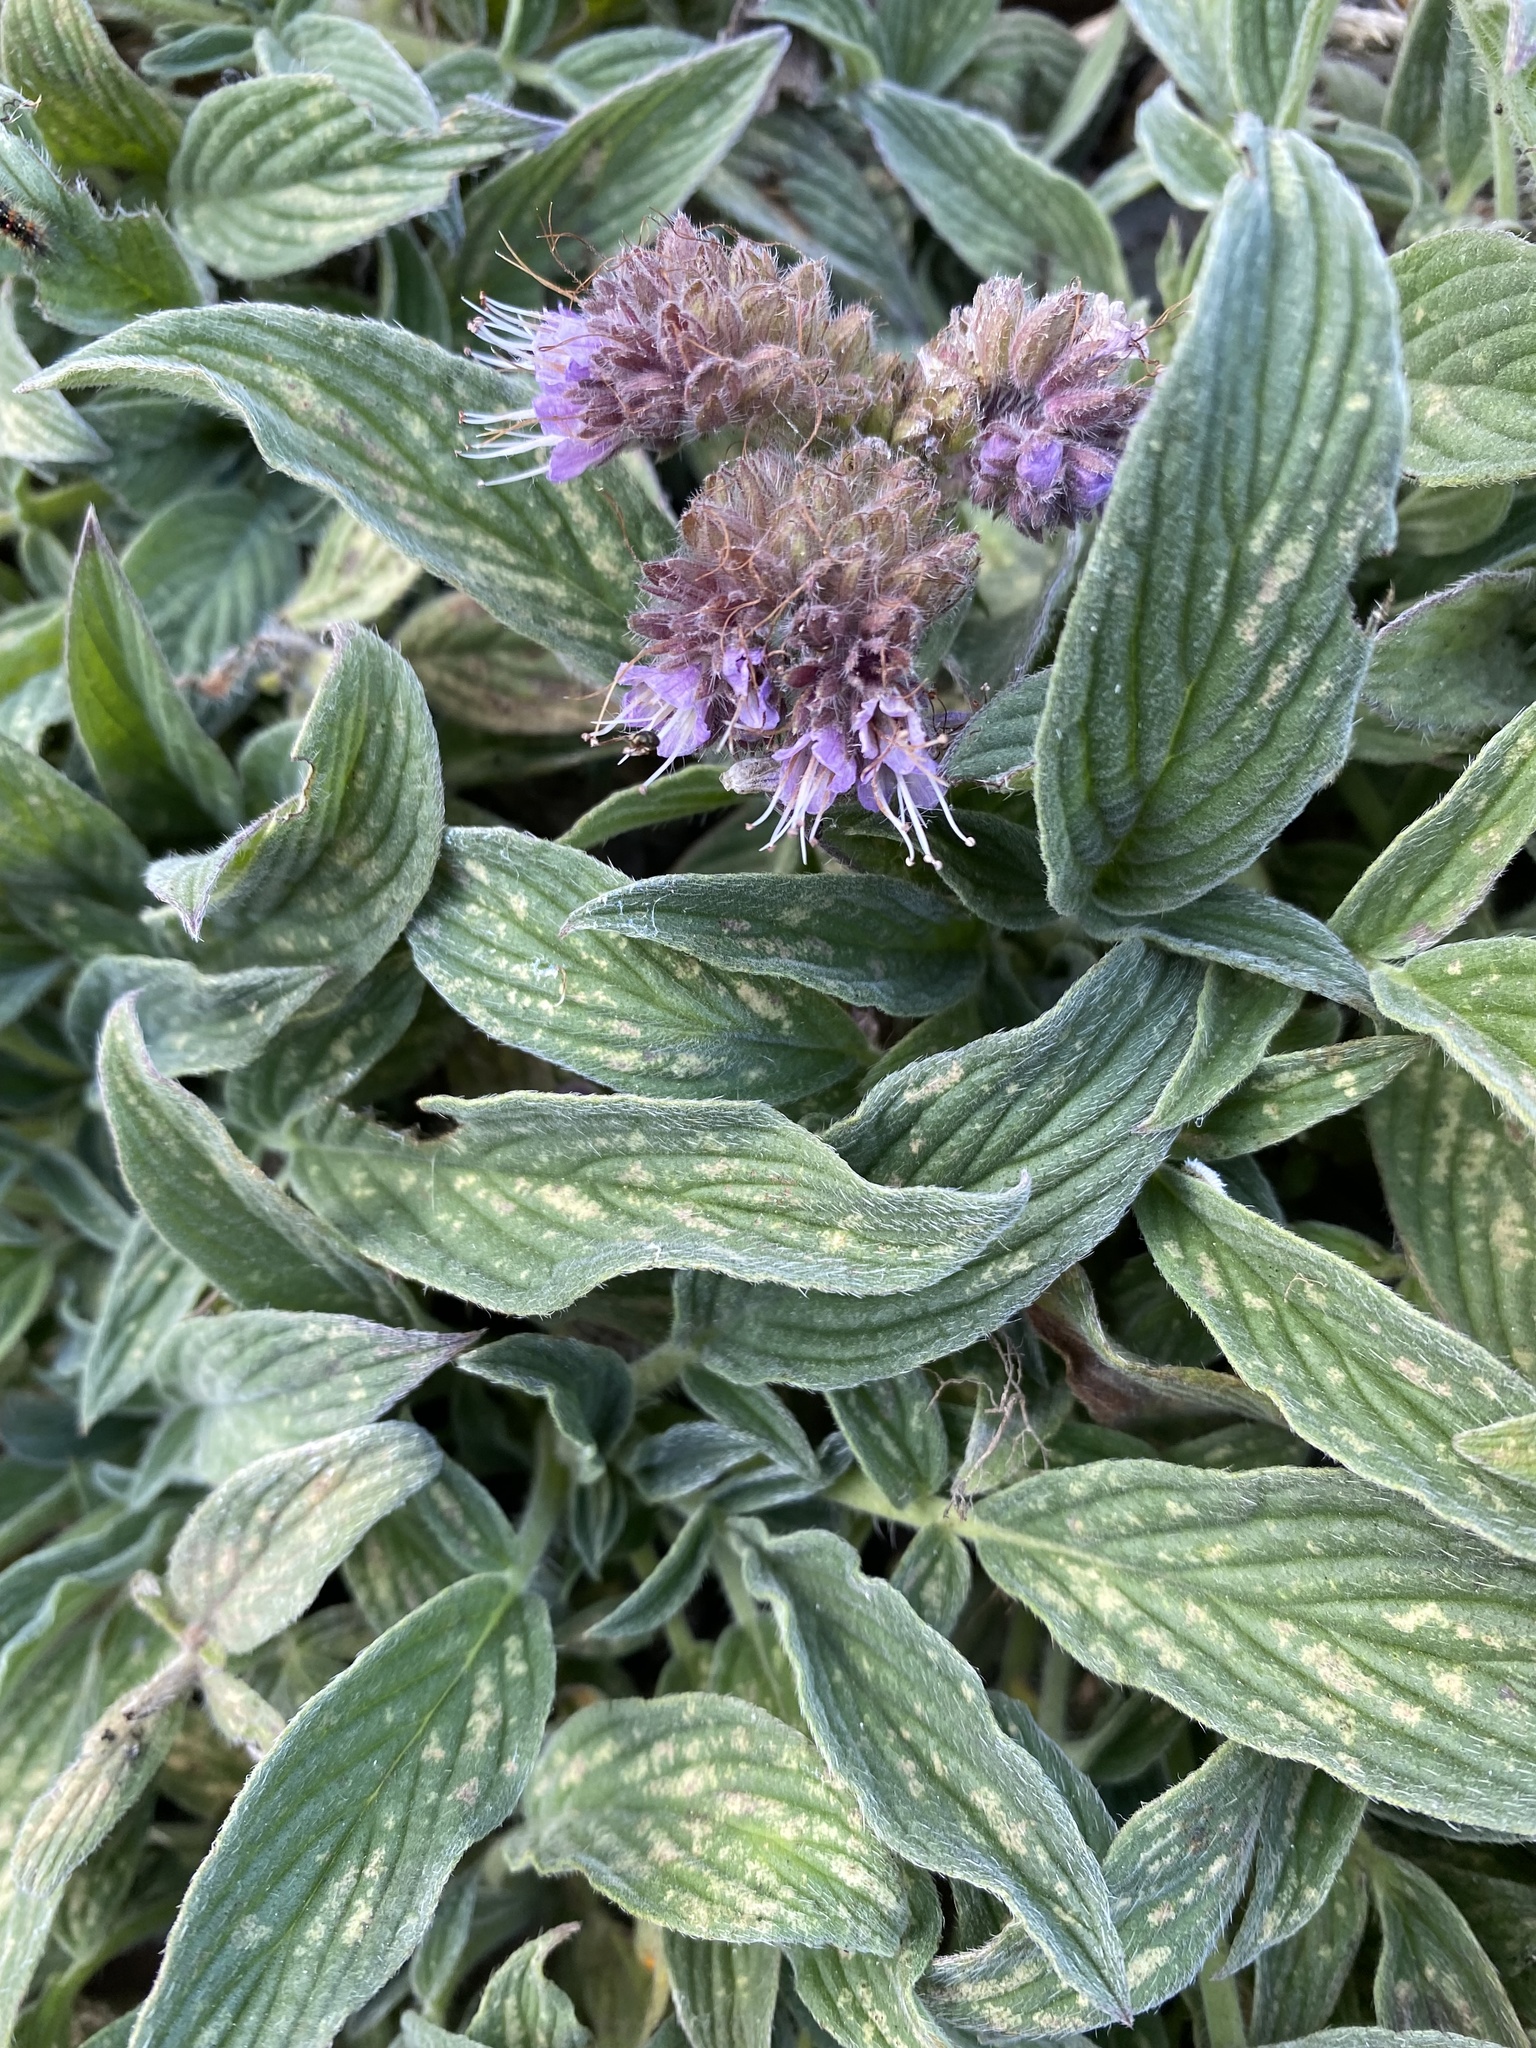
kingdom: Plantae
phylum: Tracheophyta
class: Magnoliopsida
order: Boraginales
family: Hydrophyllaceae
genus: Phacelia
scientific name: Phacelia californica
